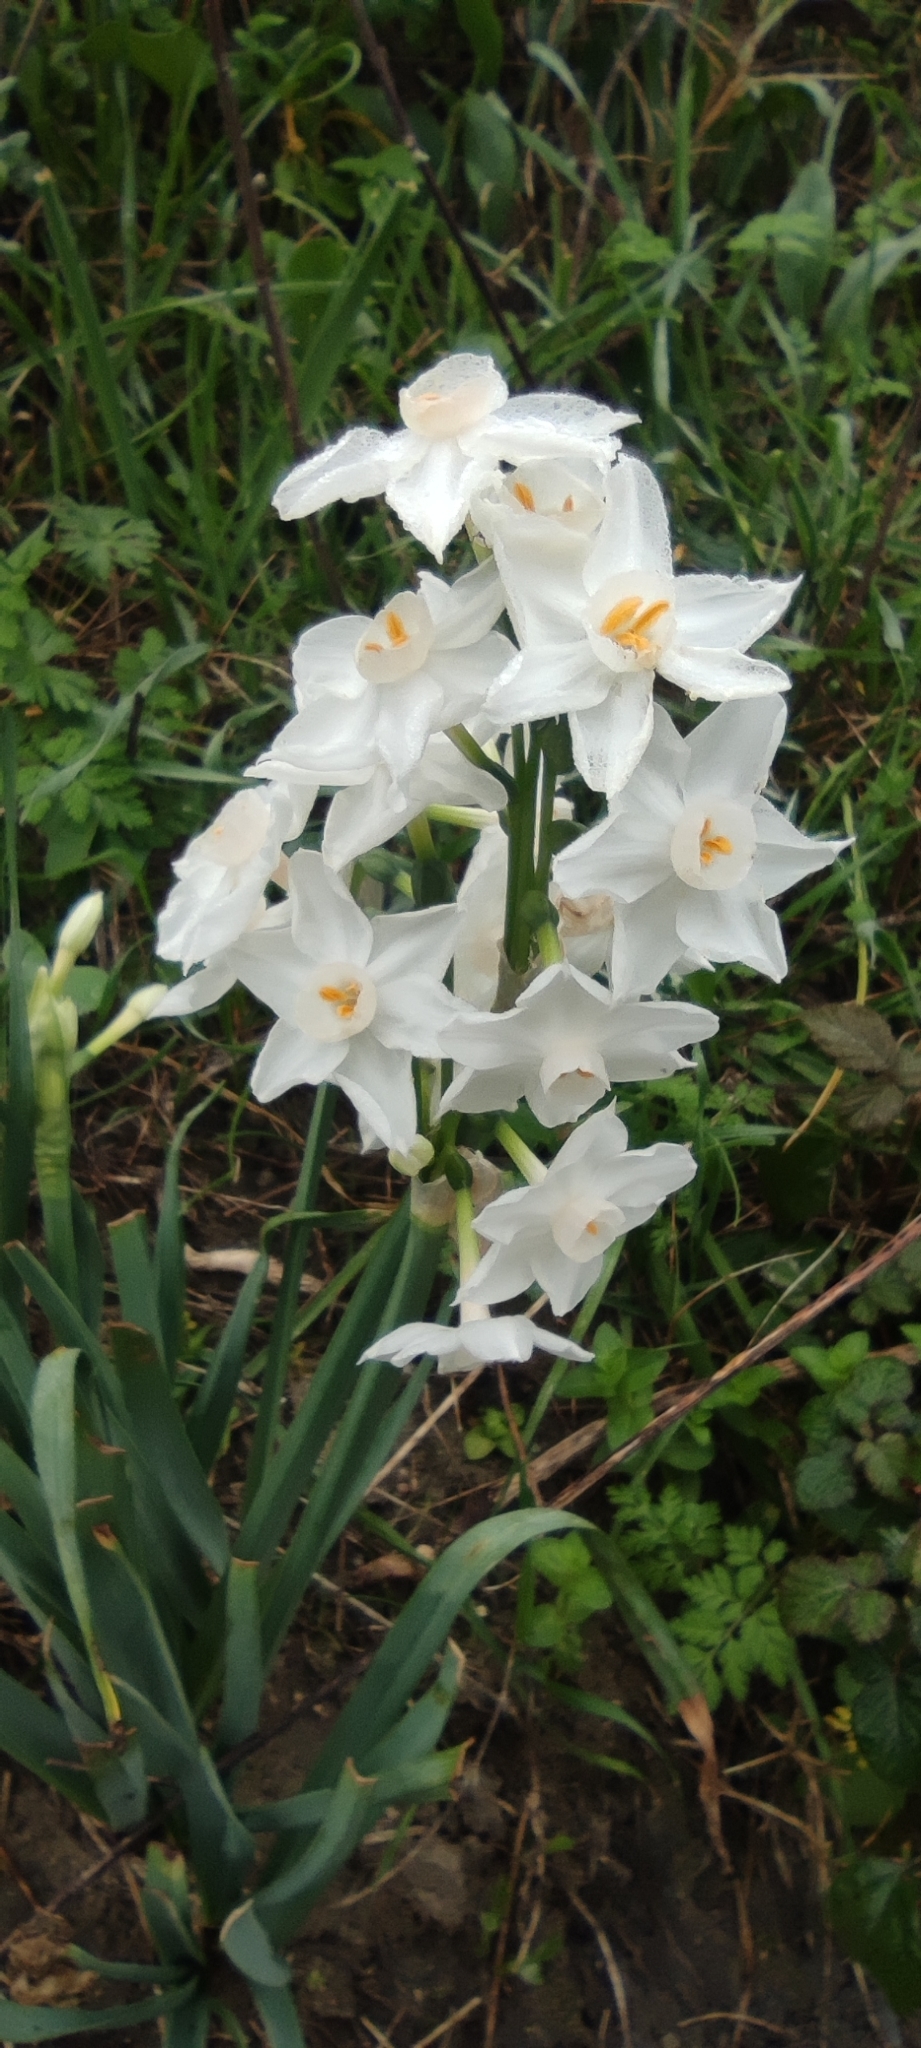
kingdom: Plantae
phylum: Tracheophyta
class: Liliopsida
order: Asparagales
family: Amaryllidaceae
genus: Narcissus
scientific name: Narcissus papyraceus
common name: Paper-white daffodil
